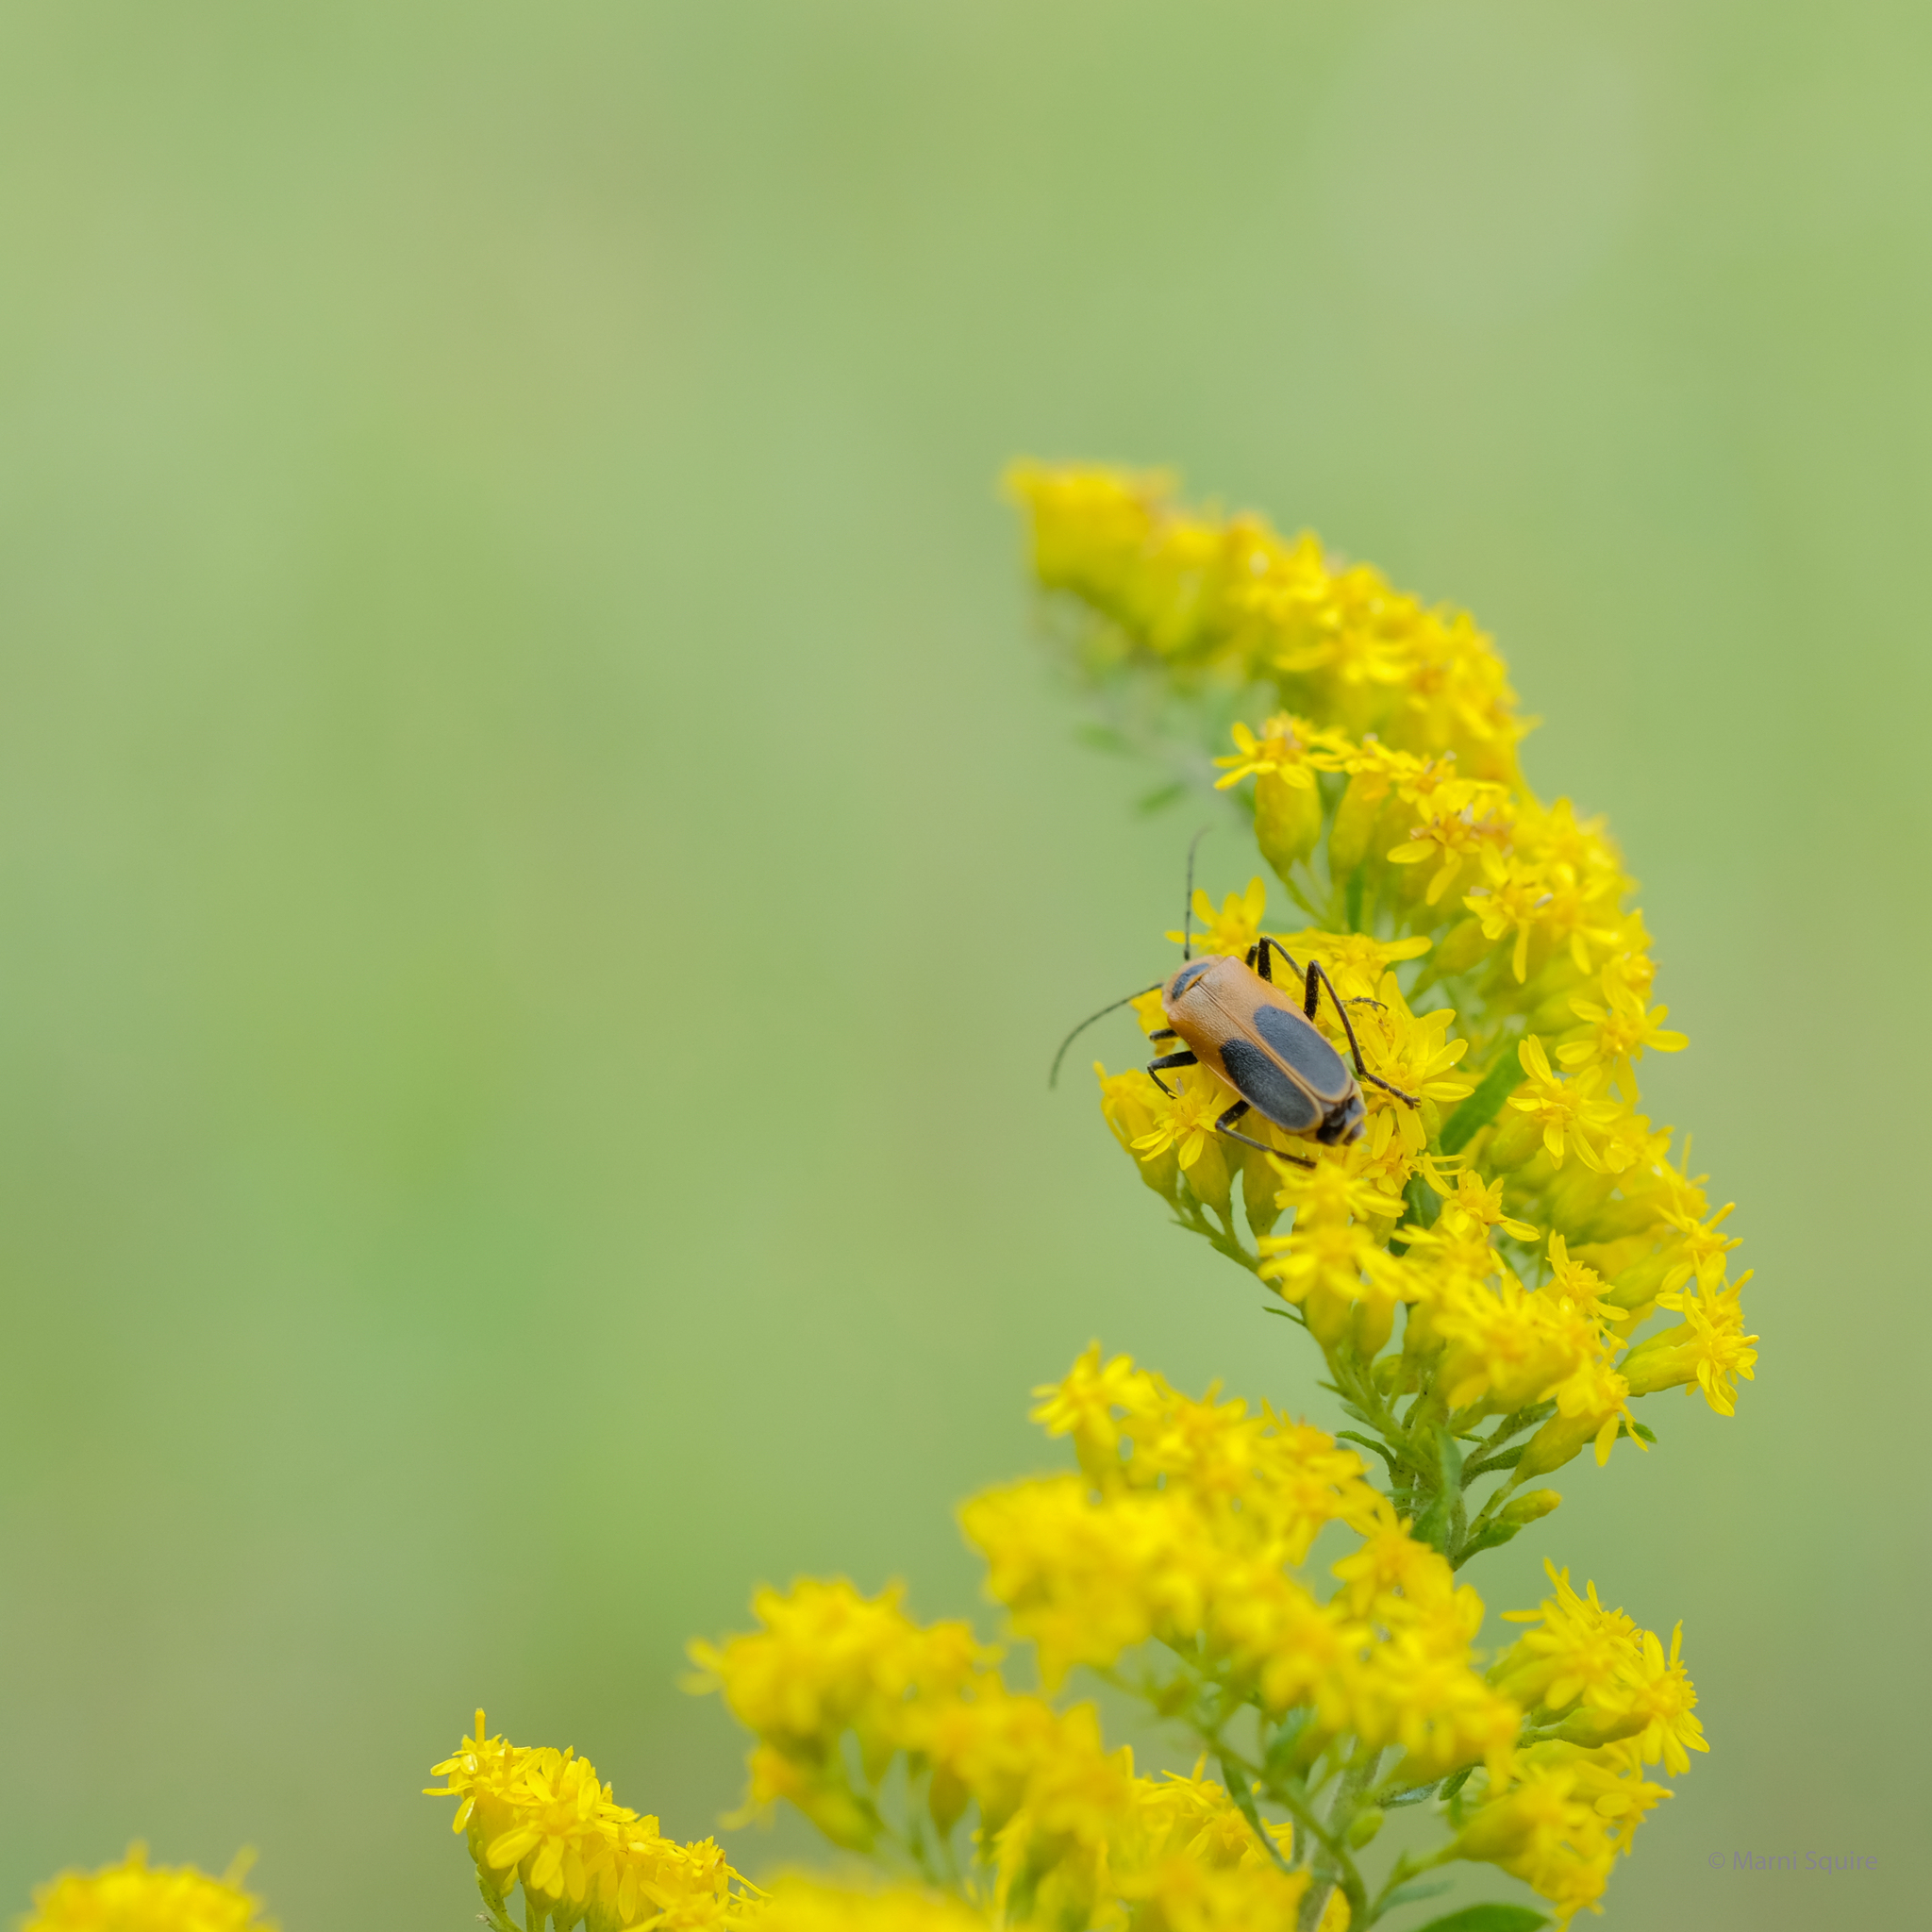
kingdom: Animalia
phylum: Arthropoda
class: Insecta
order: Coleoptera
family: Cantharidae
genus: Chauliognathus
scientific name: Chauliognathus pensylvanicus
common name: Goldenrod soldier beetle
